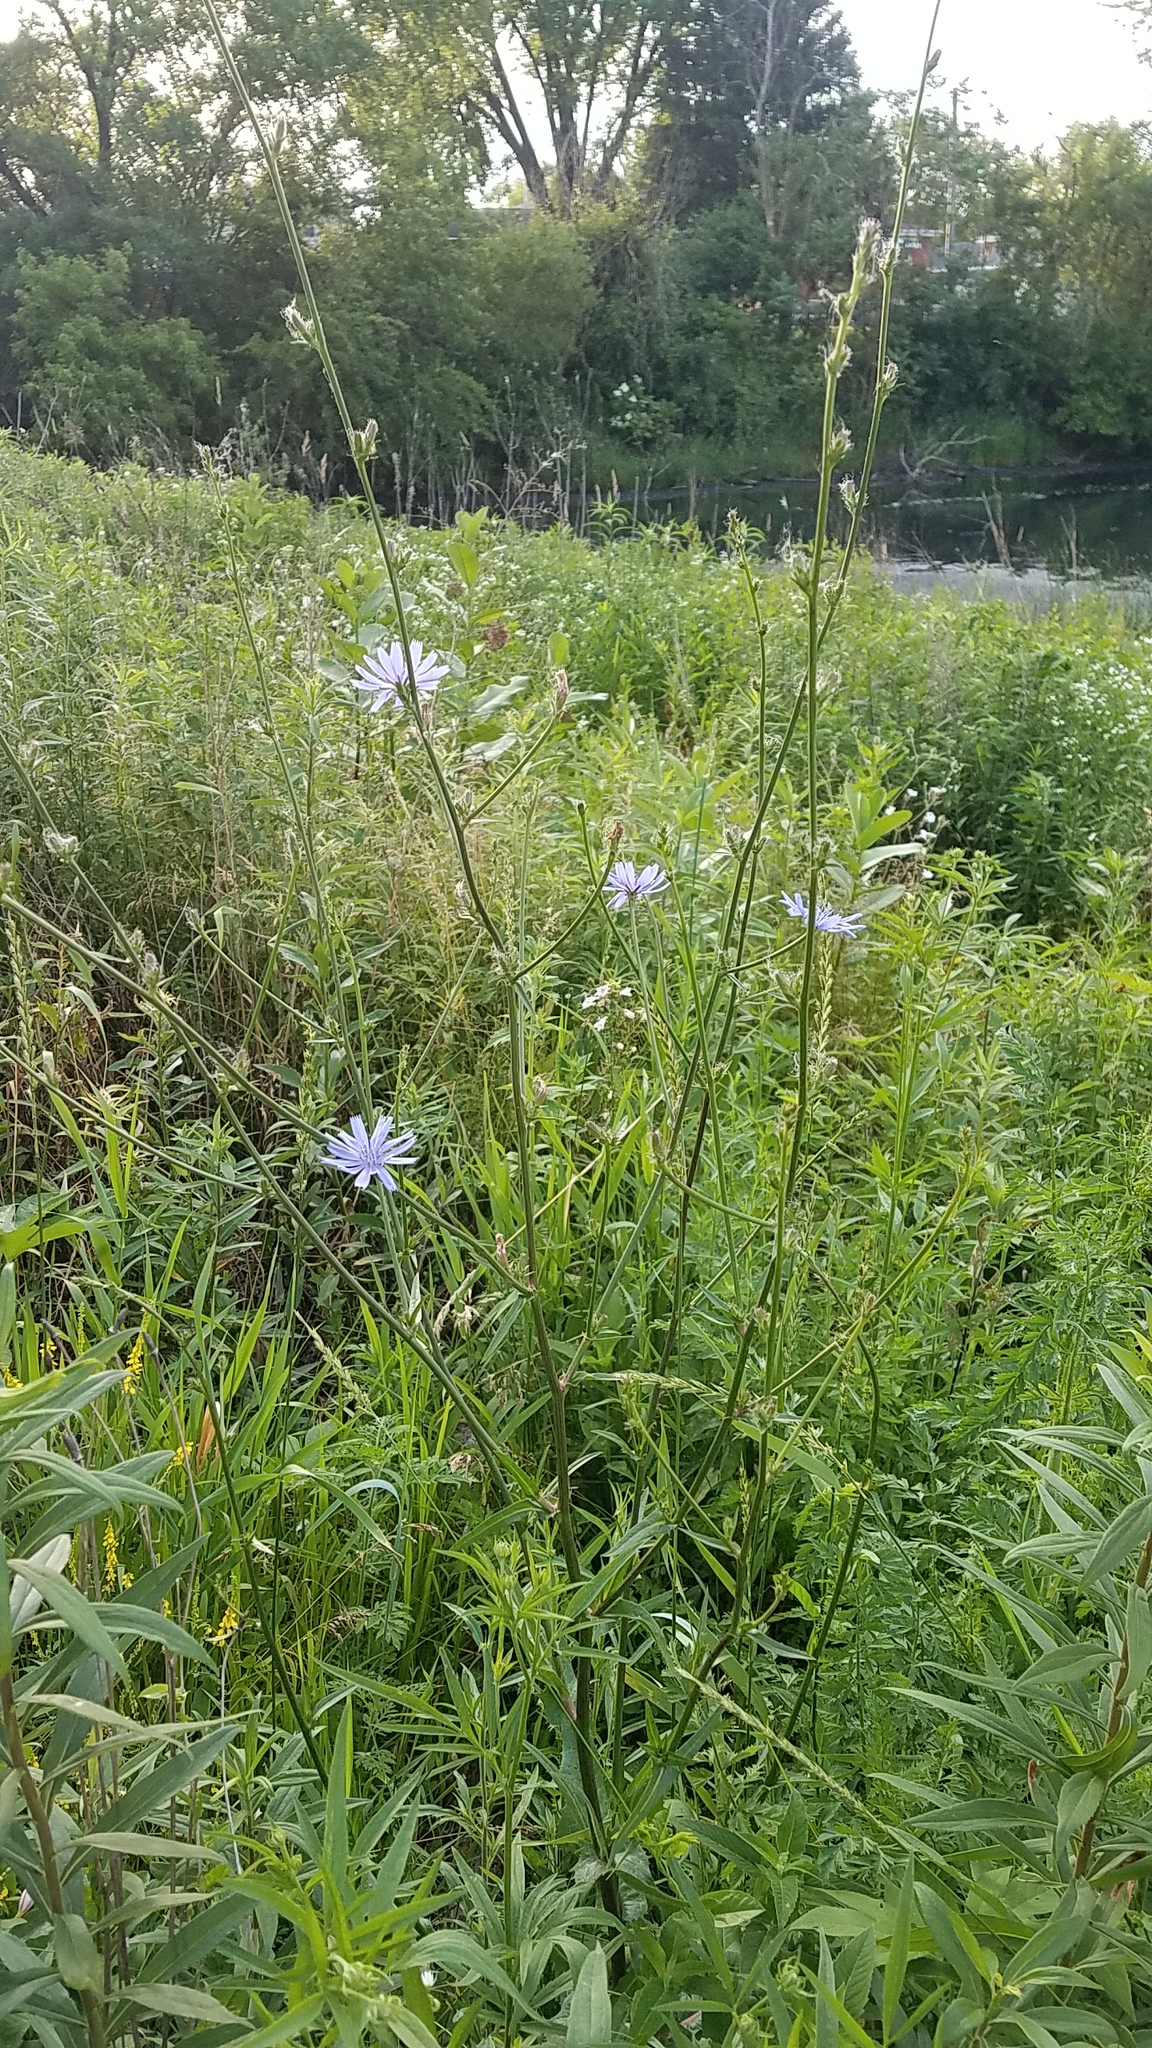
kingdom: Plantae
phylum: Tracheophyta
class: Magnoliopsida
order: Asterales
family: Asteraceae
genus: Cichorium
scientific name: Cichorium intybus
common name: Chicory
